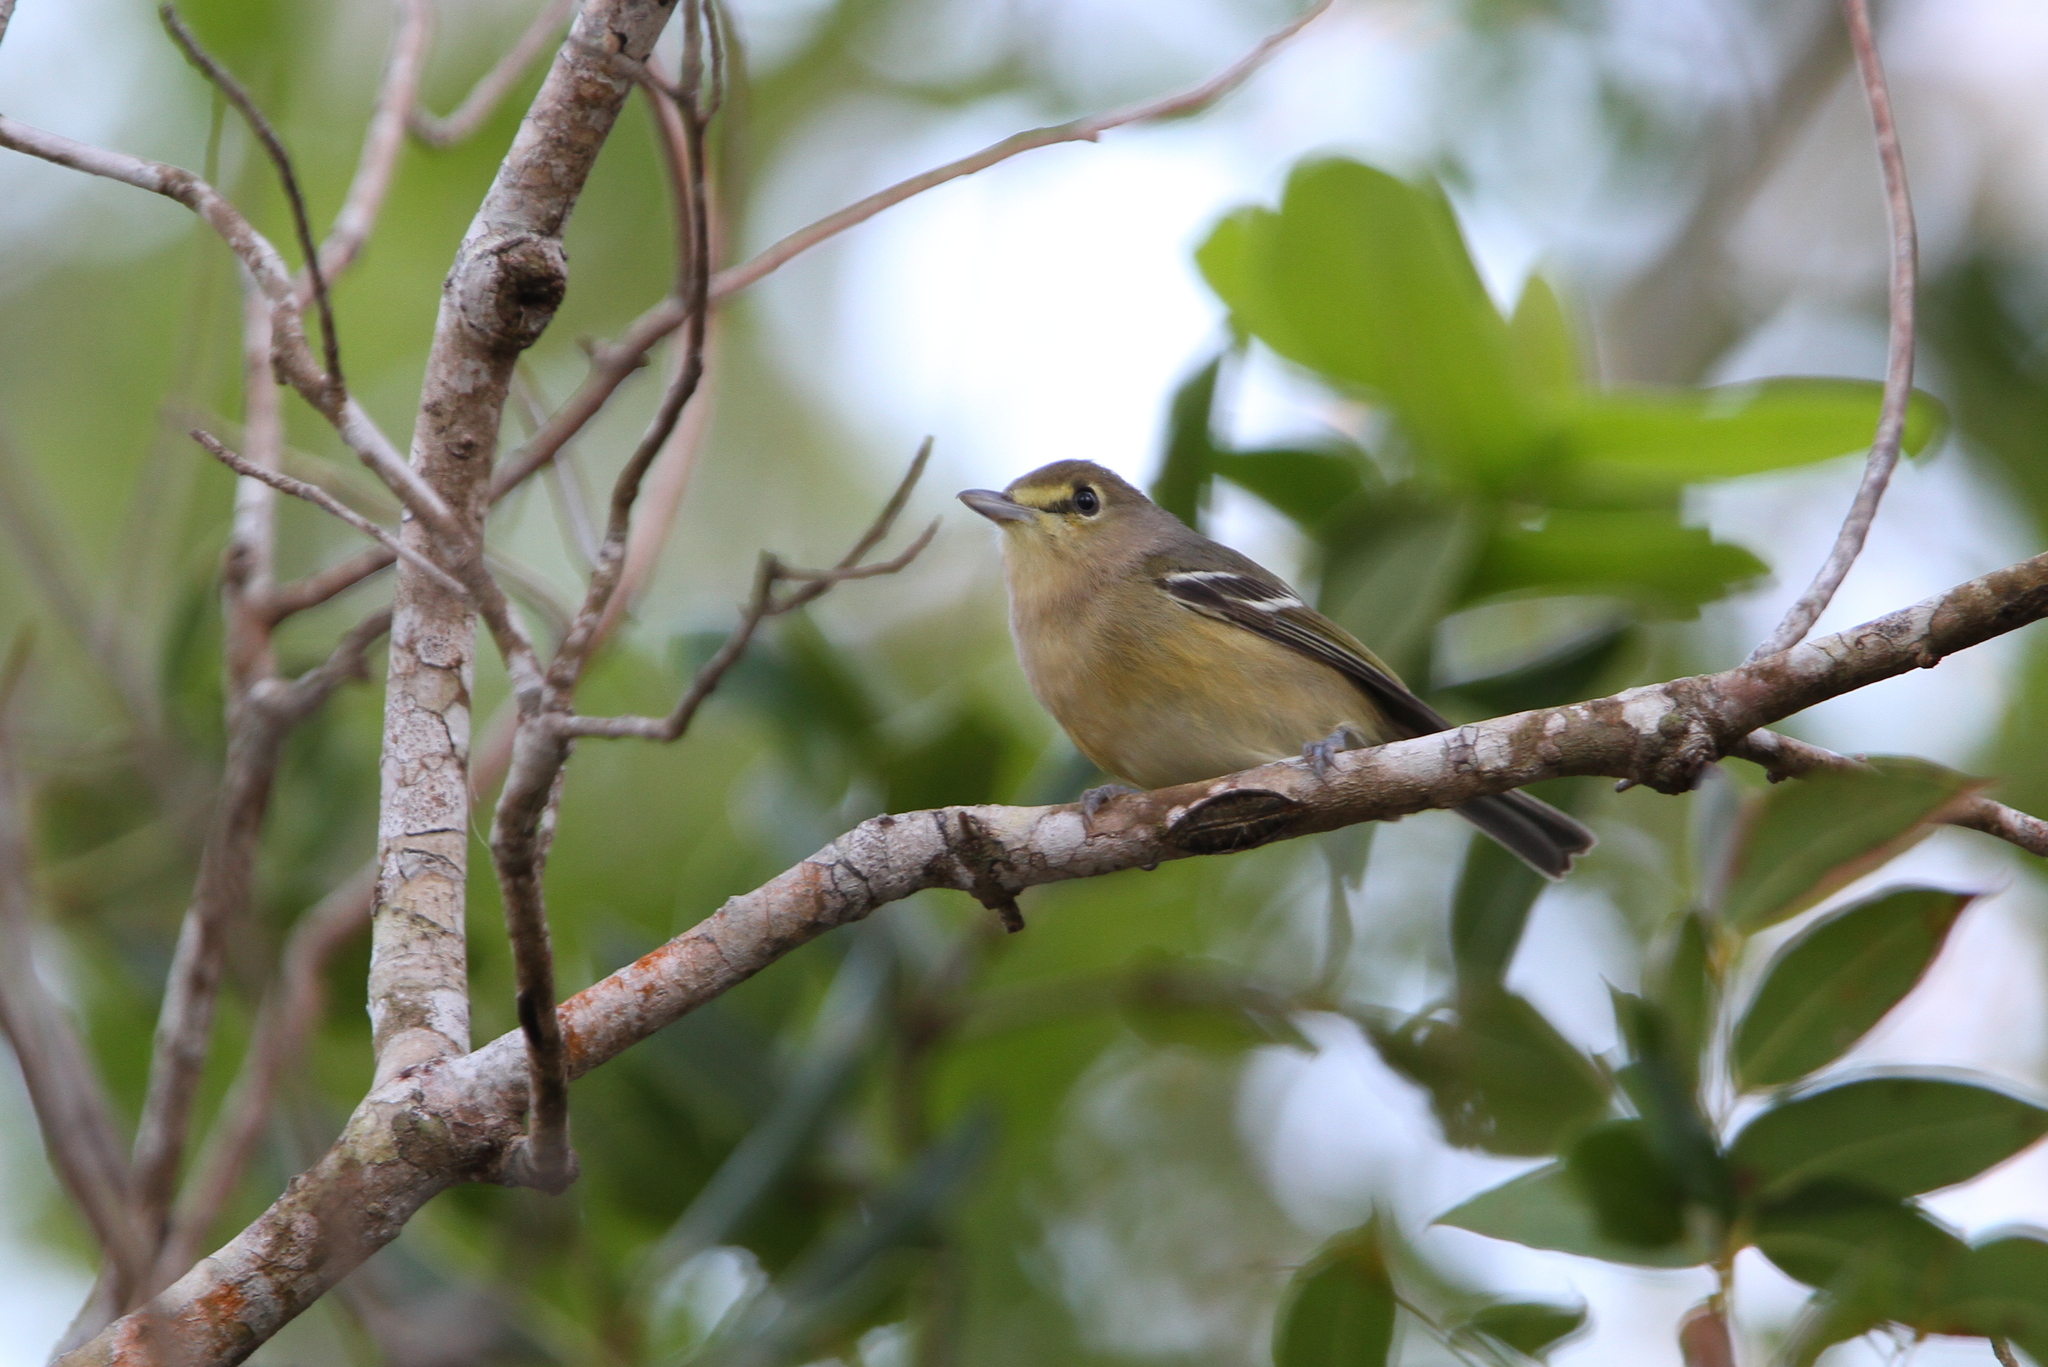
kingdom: Animalia
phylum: Chordata
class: Aves
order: Passeriformes
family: Vireonidae
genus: Vireo
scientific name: Vireo crassirostris
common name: Thick-billed vireo
